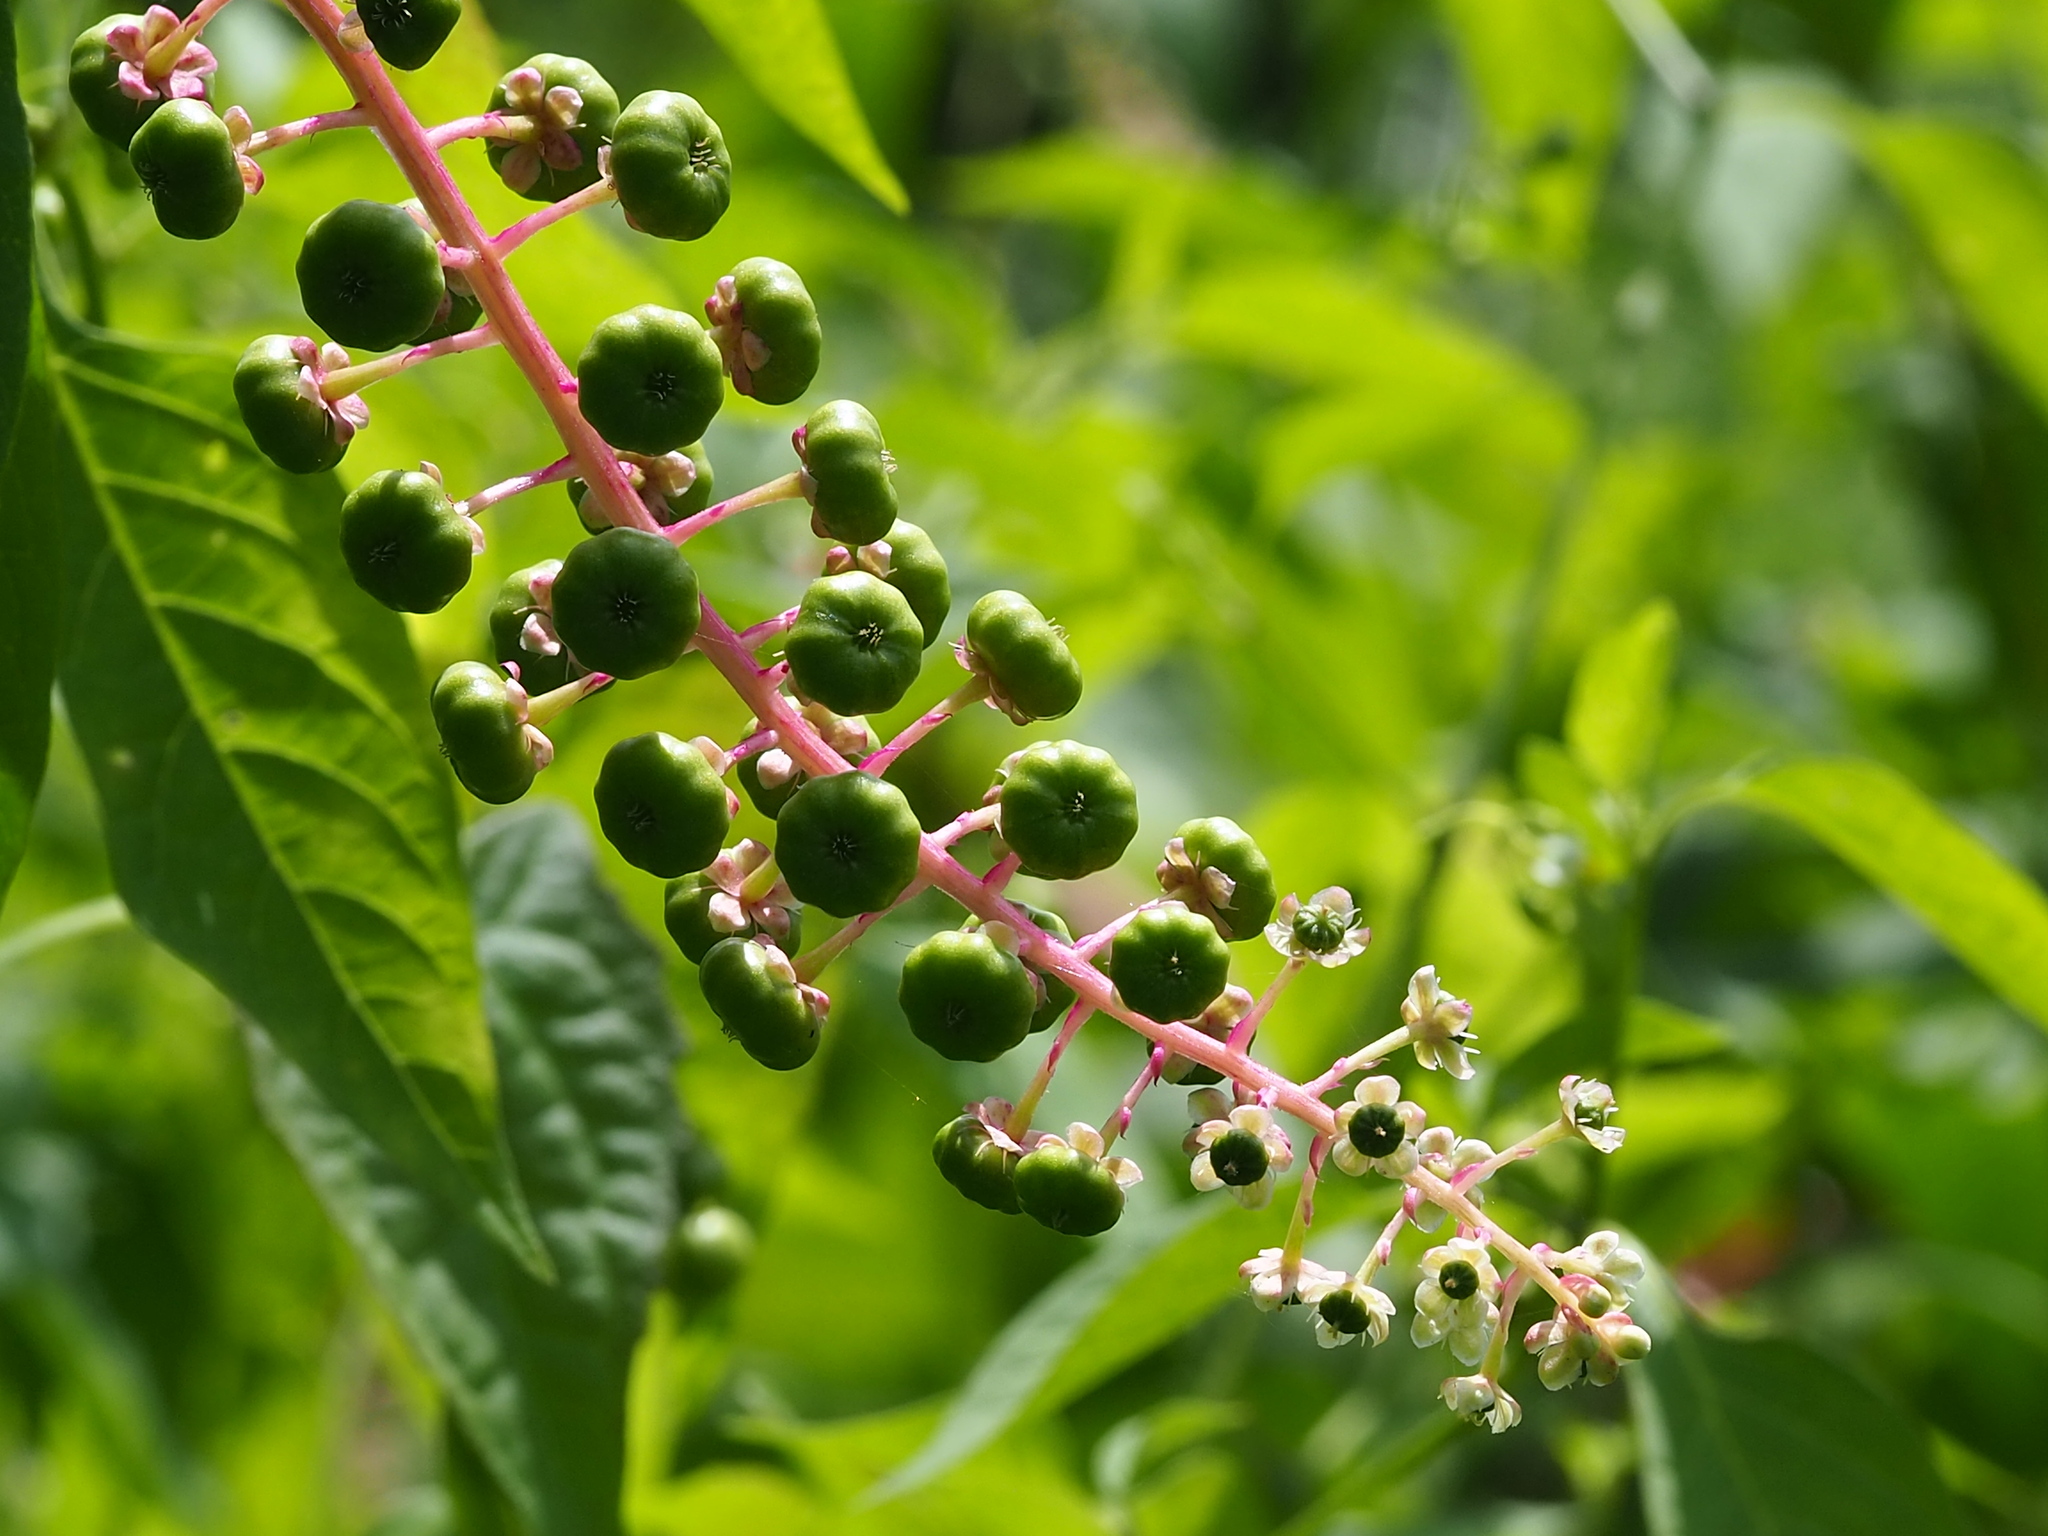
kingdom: Plantae
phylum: Tracheophyta
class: Magnoliopsida
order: Caryophyllales
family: Phytolaccaceae
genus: Phytolacca
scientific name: Phytolacca americana
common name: American pokeweed
